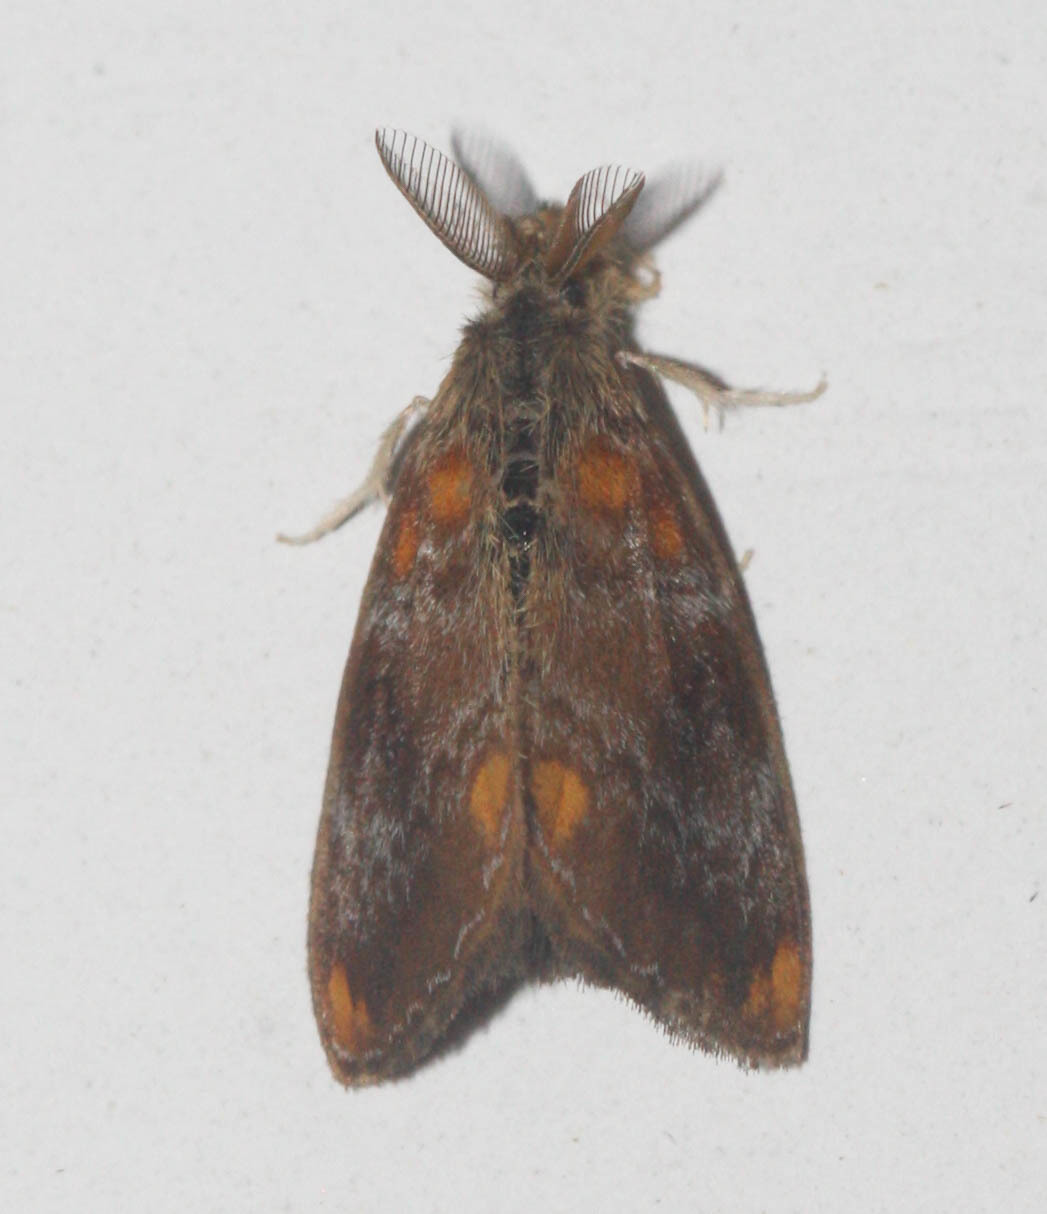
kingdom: Animalia
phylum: Arthropoda
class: Insecta
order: Lepidoptera
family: Erebidae
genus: Clethrogyna
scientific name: Clethrogyna turbata
